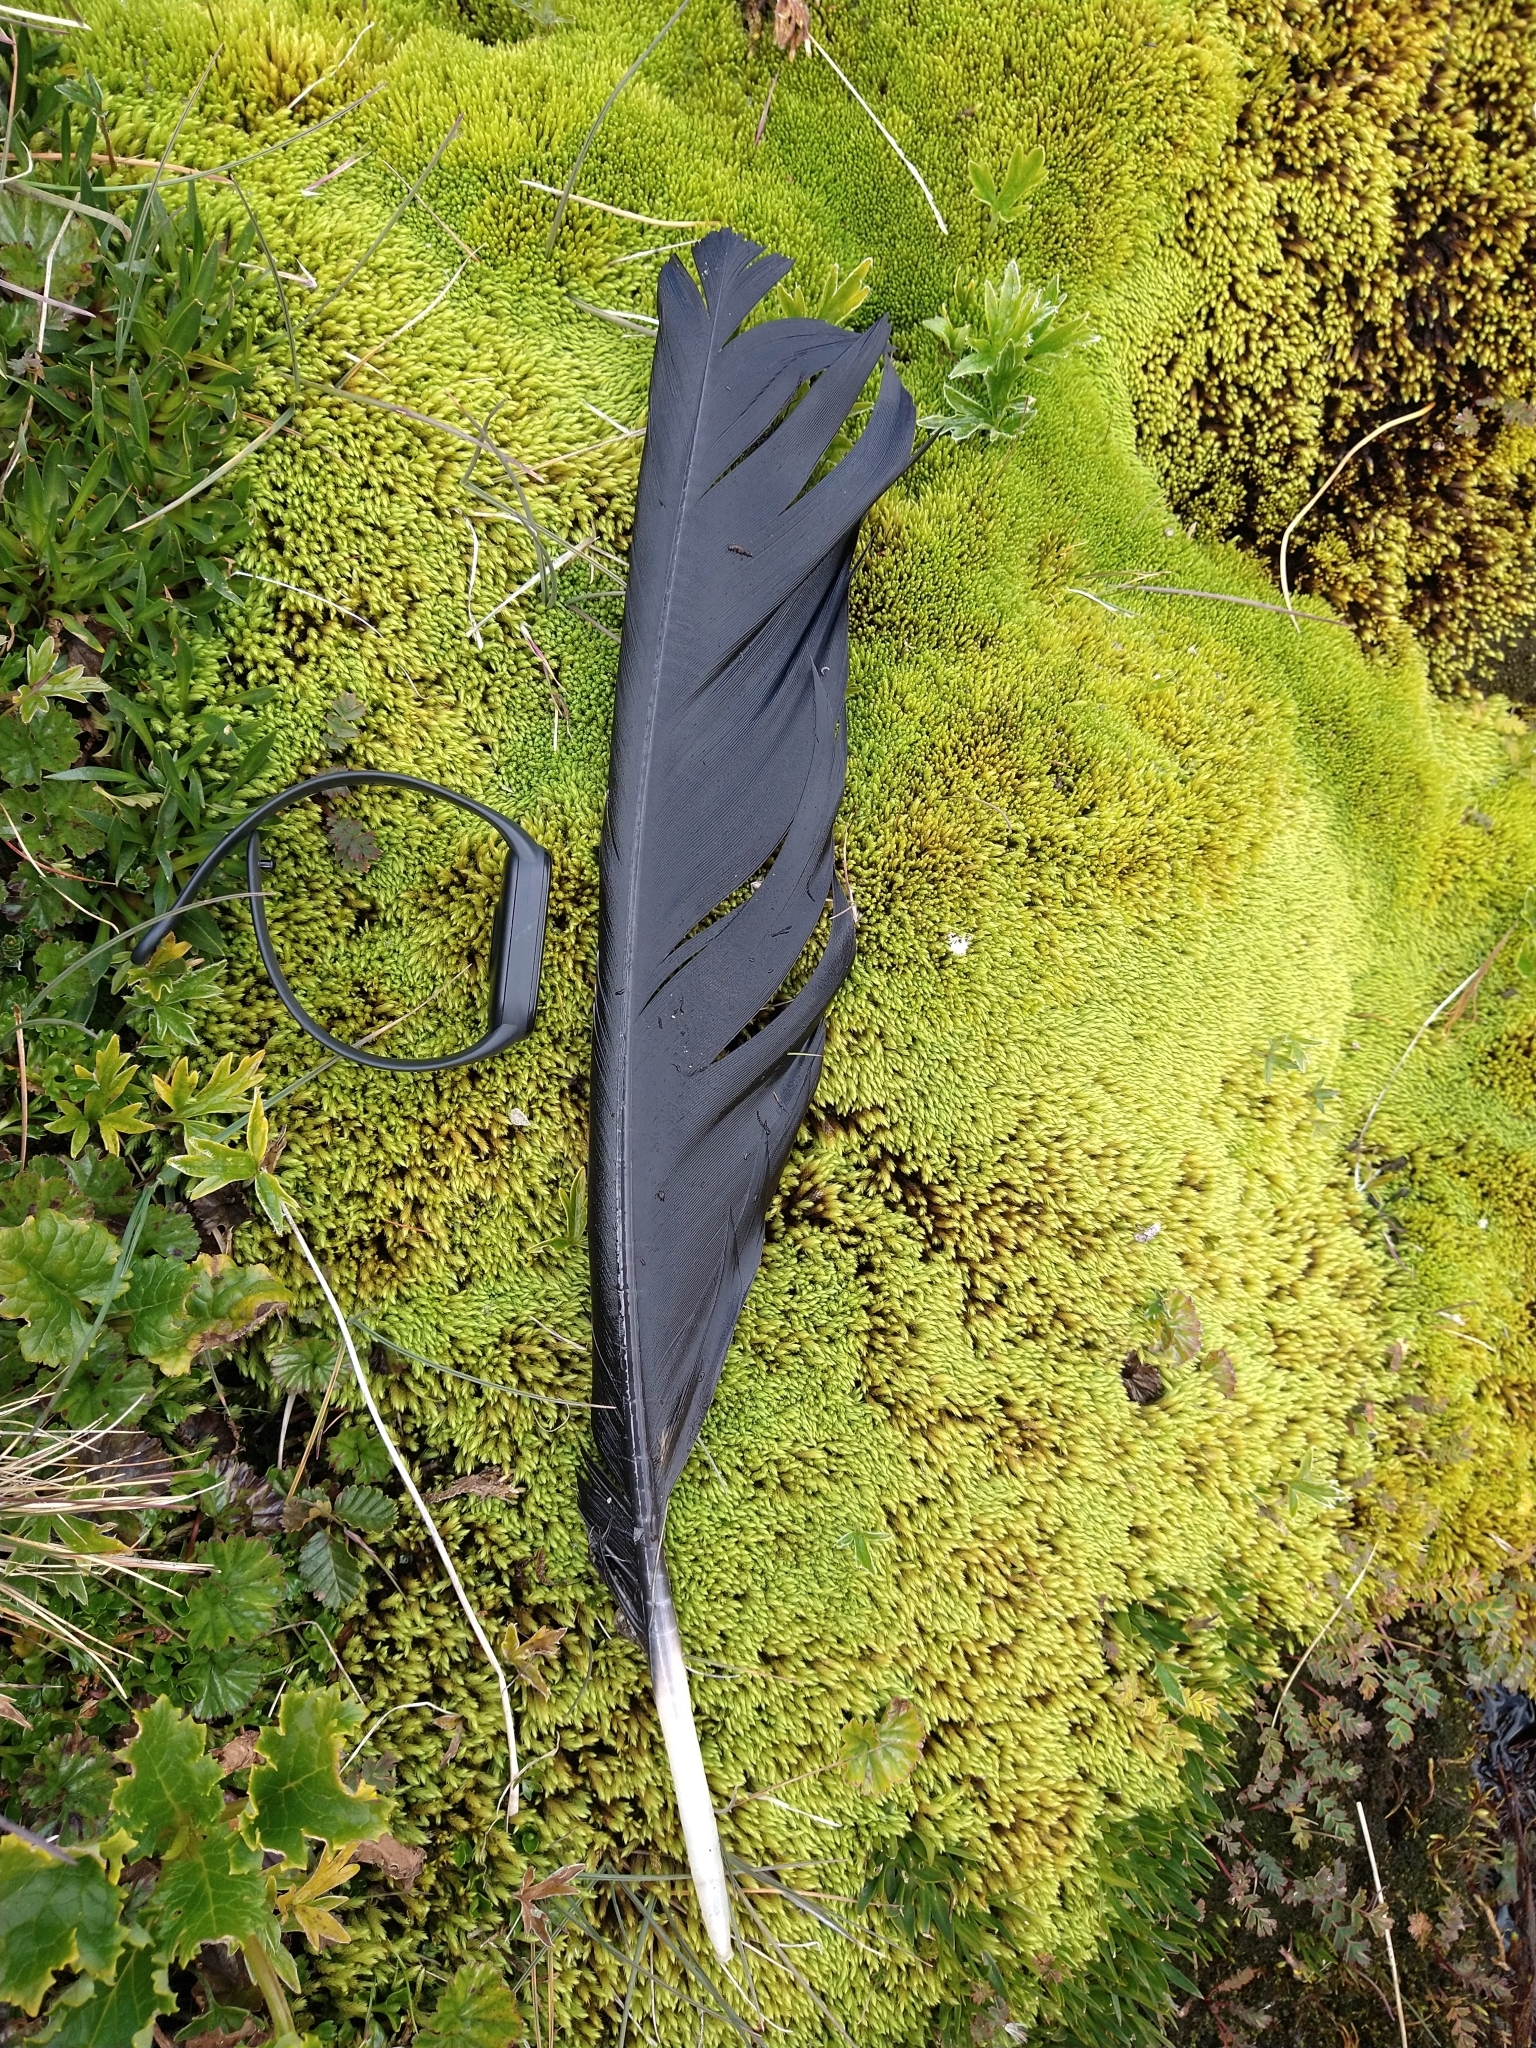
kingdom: Animalia
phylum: Chordata
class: Aves
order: Accipitriformes
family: Cathartidae
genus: Vultur
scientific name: Vultur gryphus
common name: Andean condor
